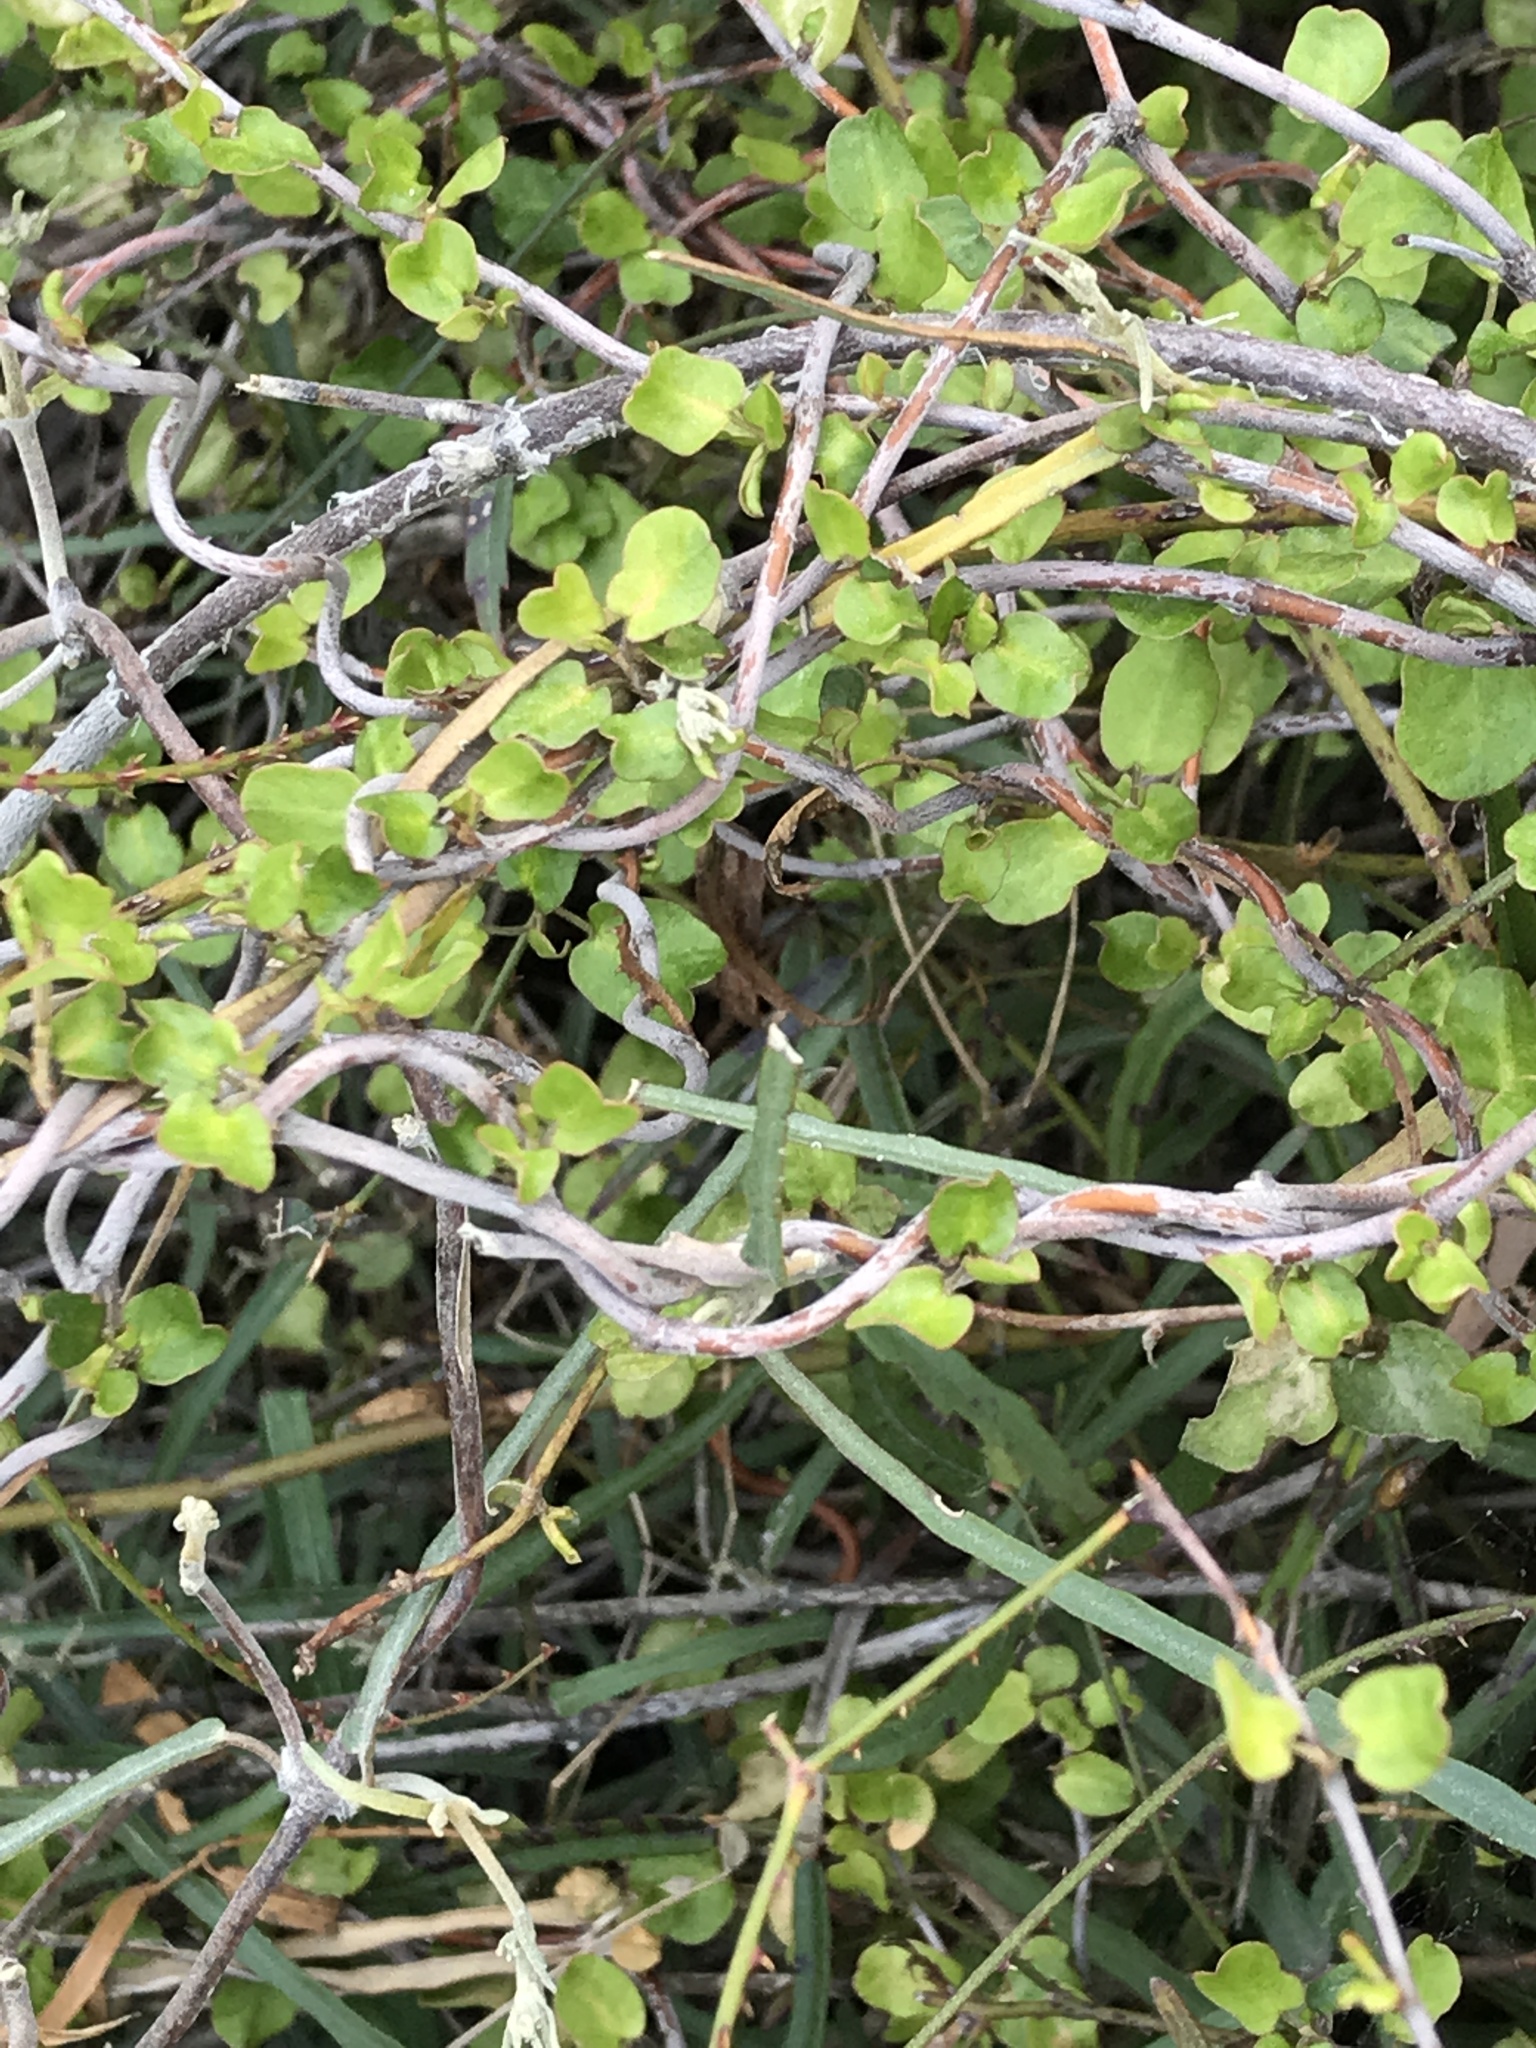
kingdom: Plantae
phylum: Tracheophyta
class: Magnoliopsida
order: Caryophyllales
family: Polygonaceae
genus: Muehlenbeckia
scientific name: Muehlenbeckia complexa
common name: Wireplant
